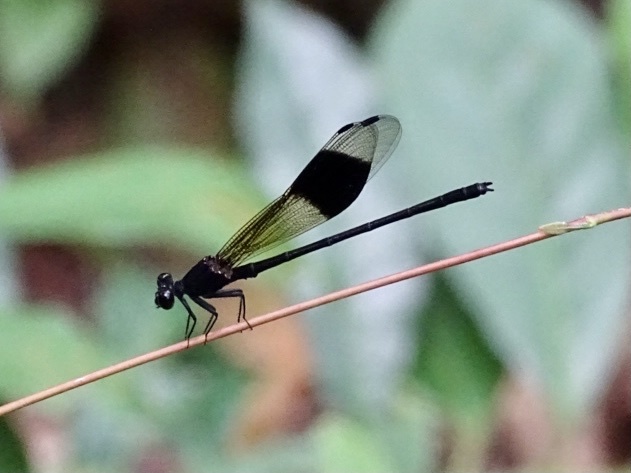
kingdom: Animalia
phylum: Arthropoda
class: Insecta
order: Odonata
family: Euphaeidae
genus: Euphaea
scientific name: Euphaea decorata
